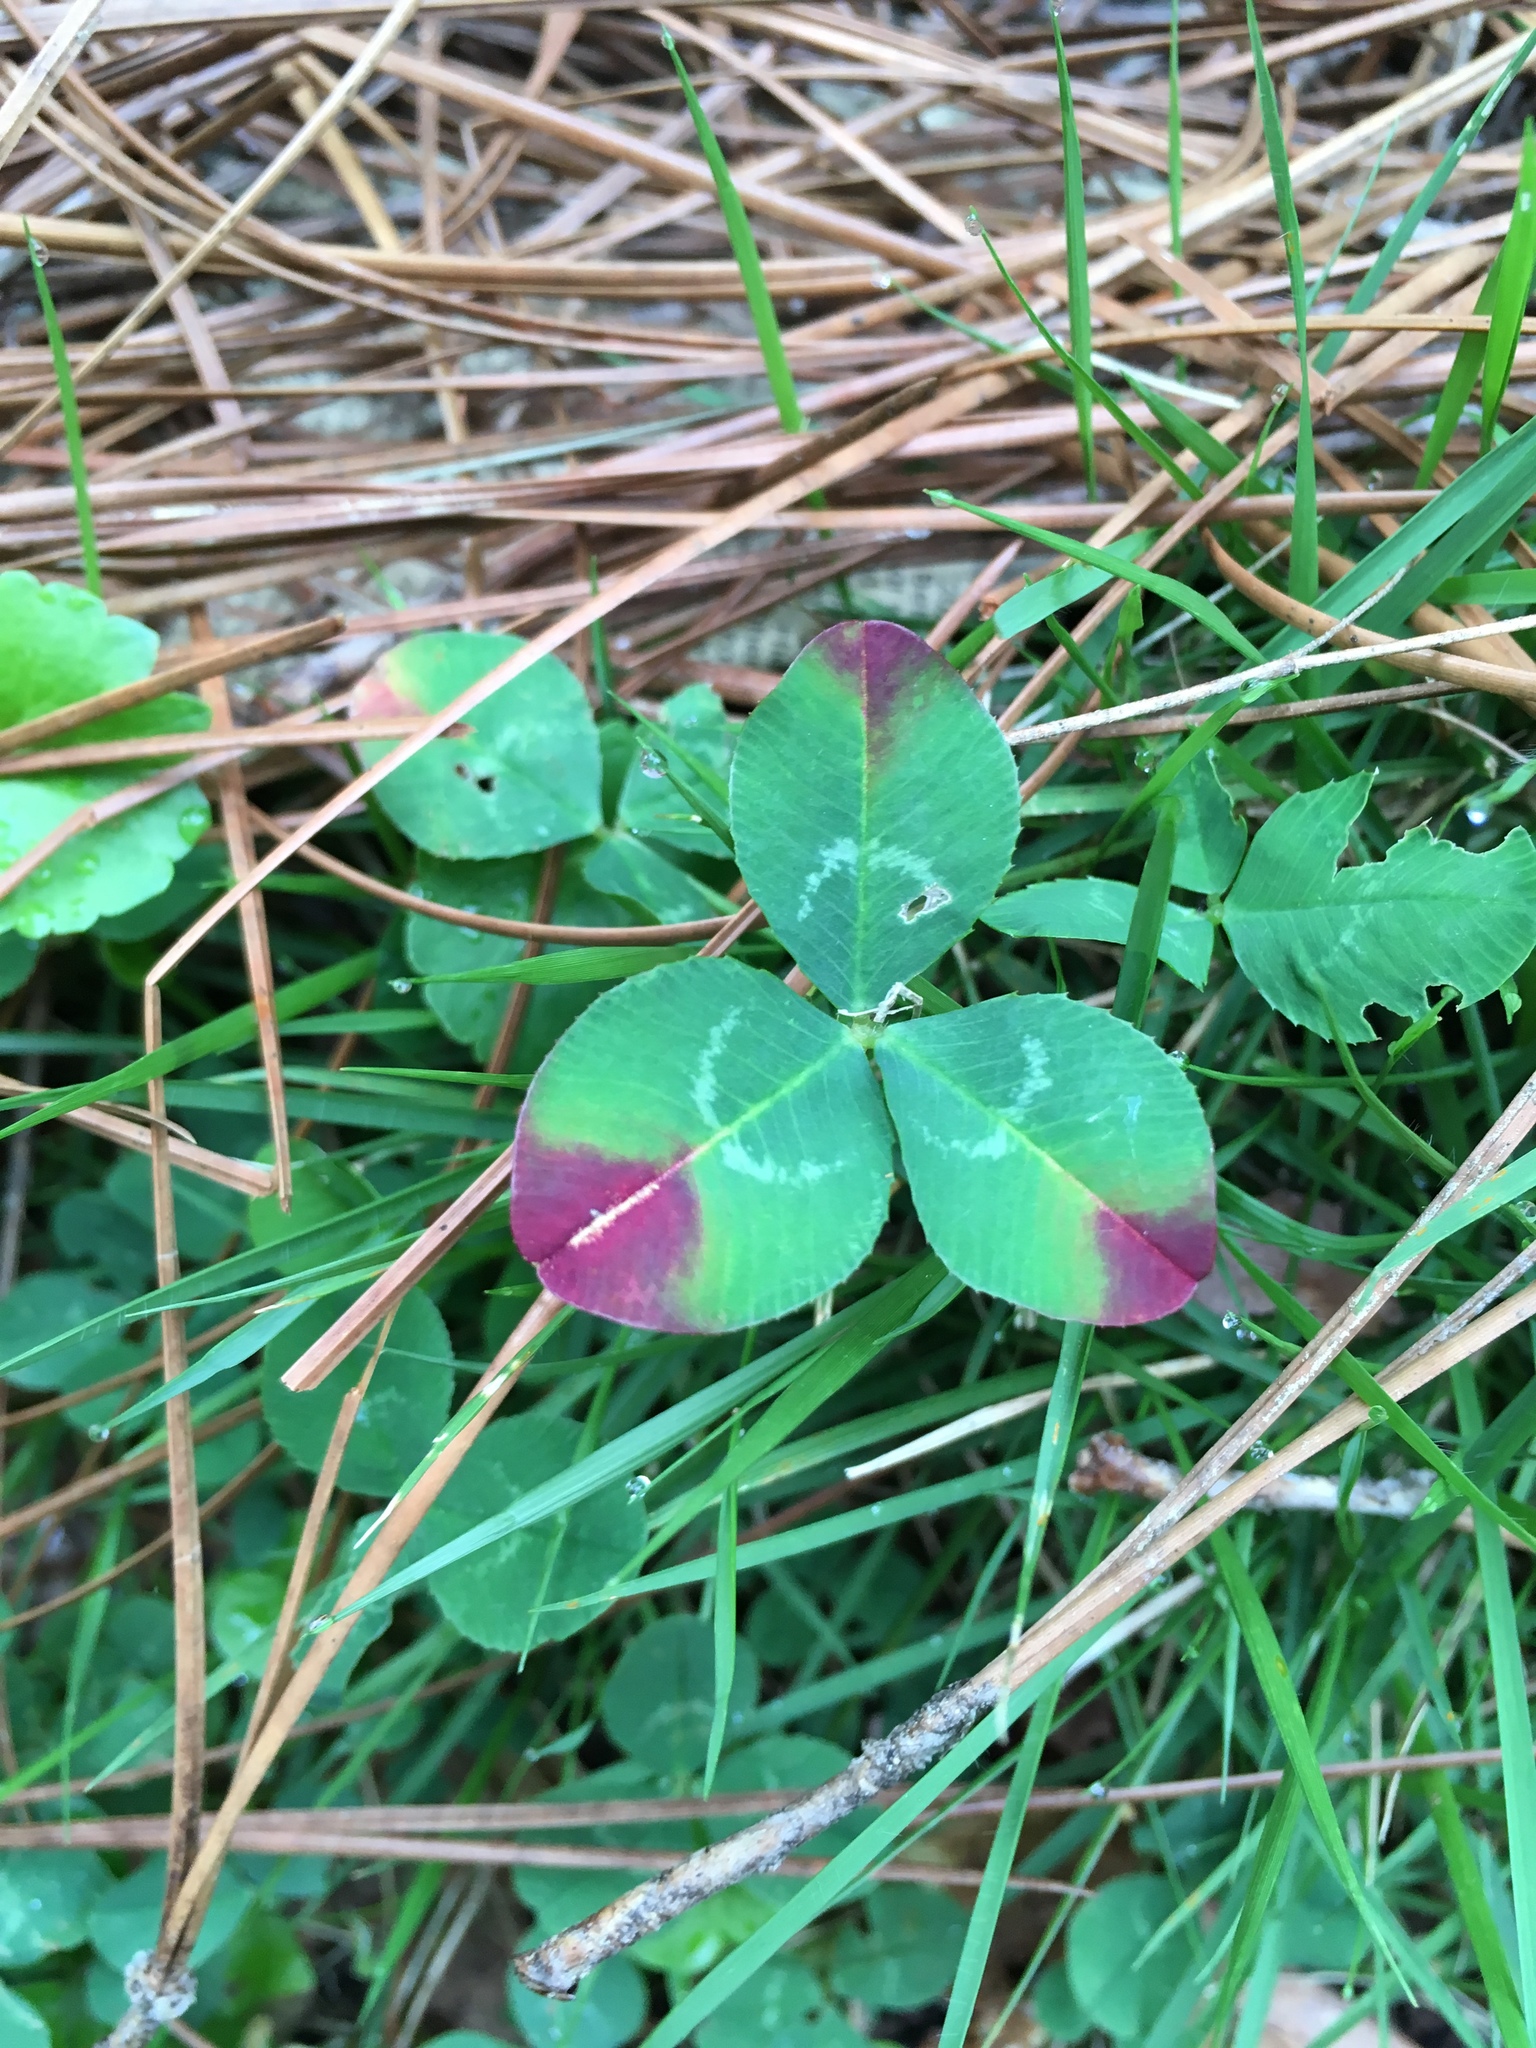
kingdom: Plantae
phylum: Tracheophyta
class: Magnoliopsida
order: Fabales
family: Fabaceae
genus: Trifolium
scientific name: Trifolium repens
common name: White clover
